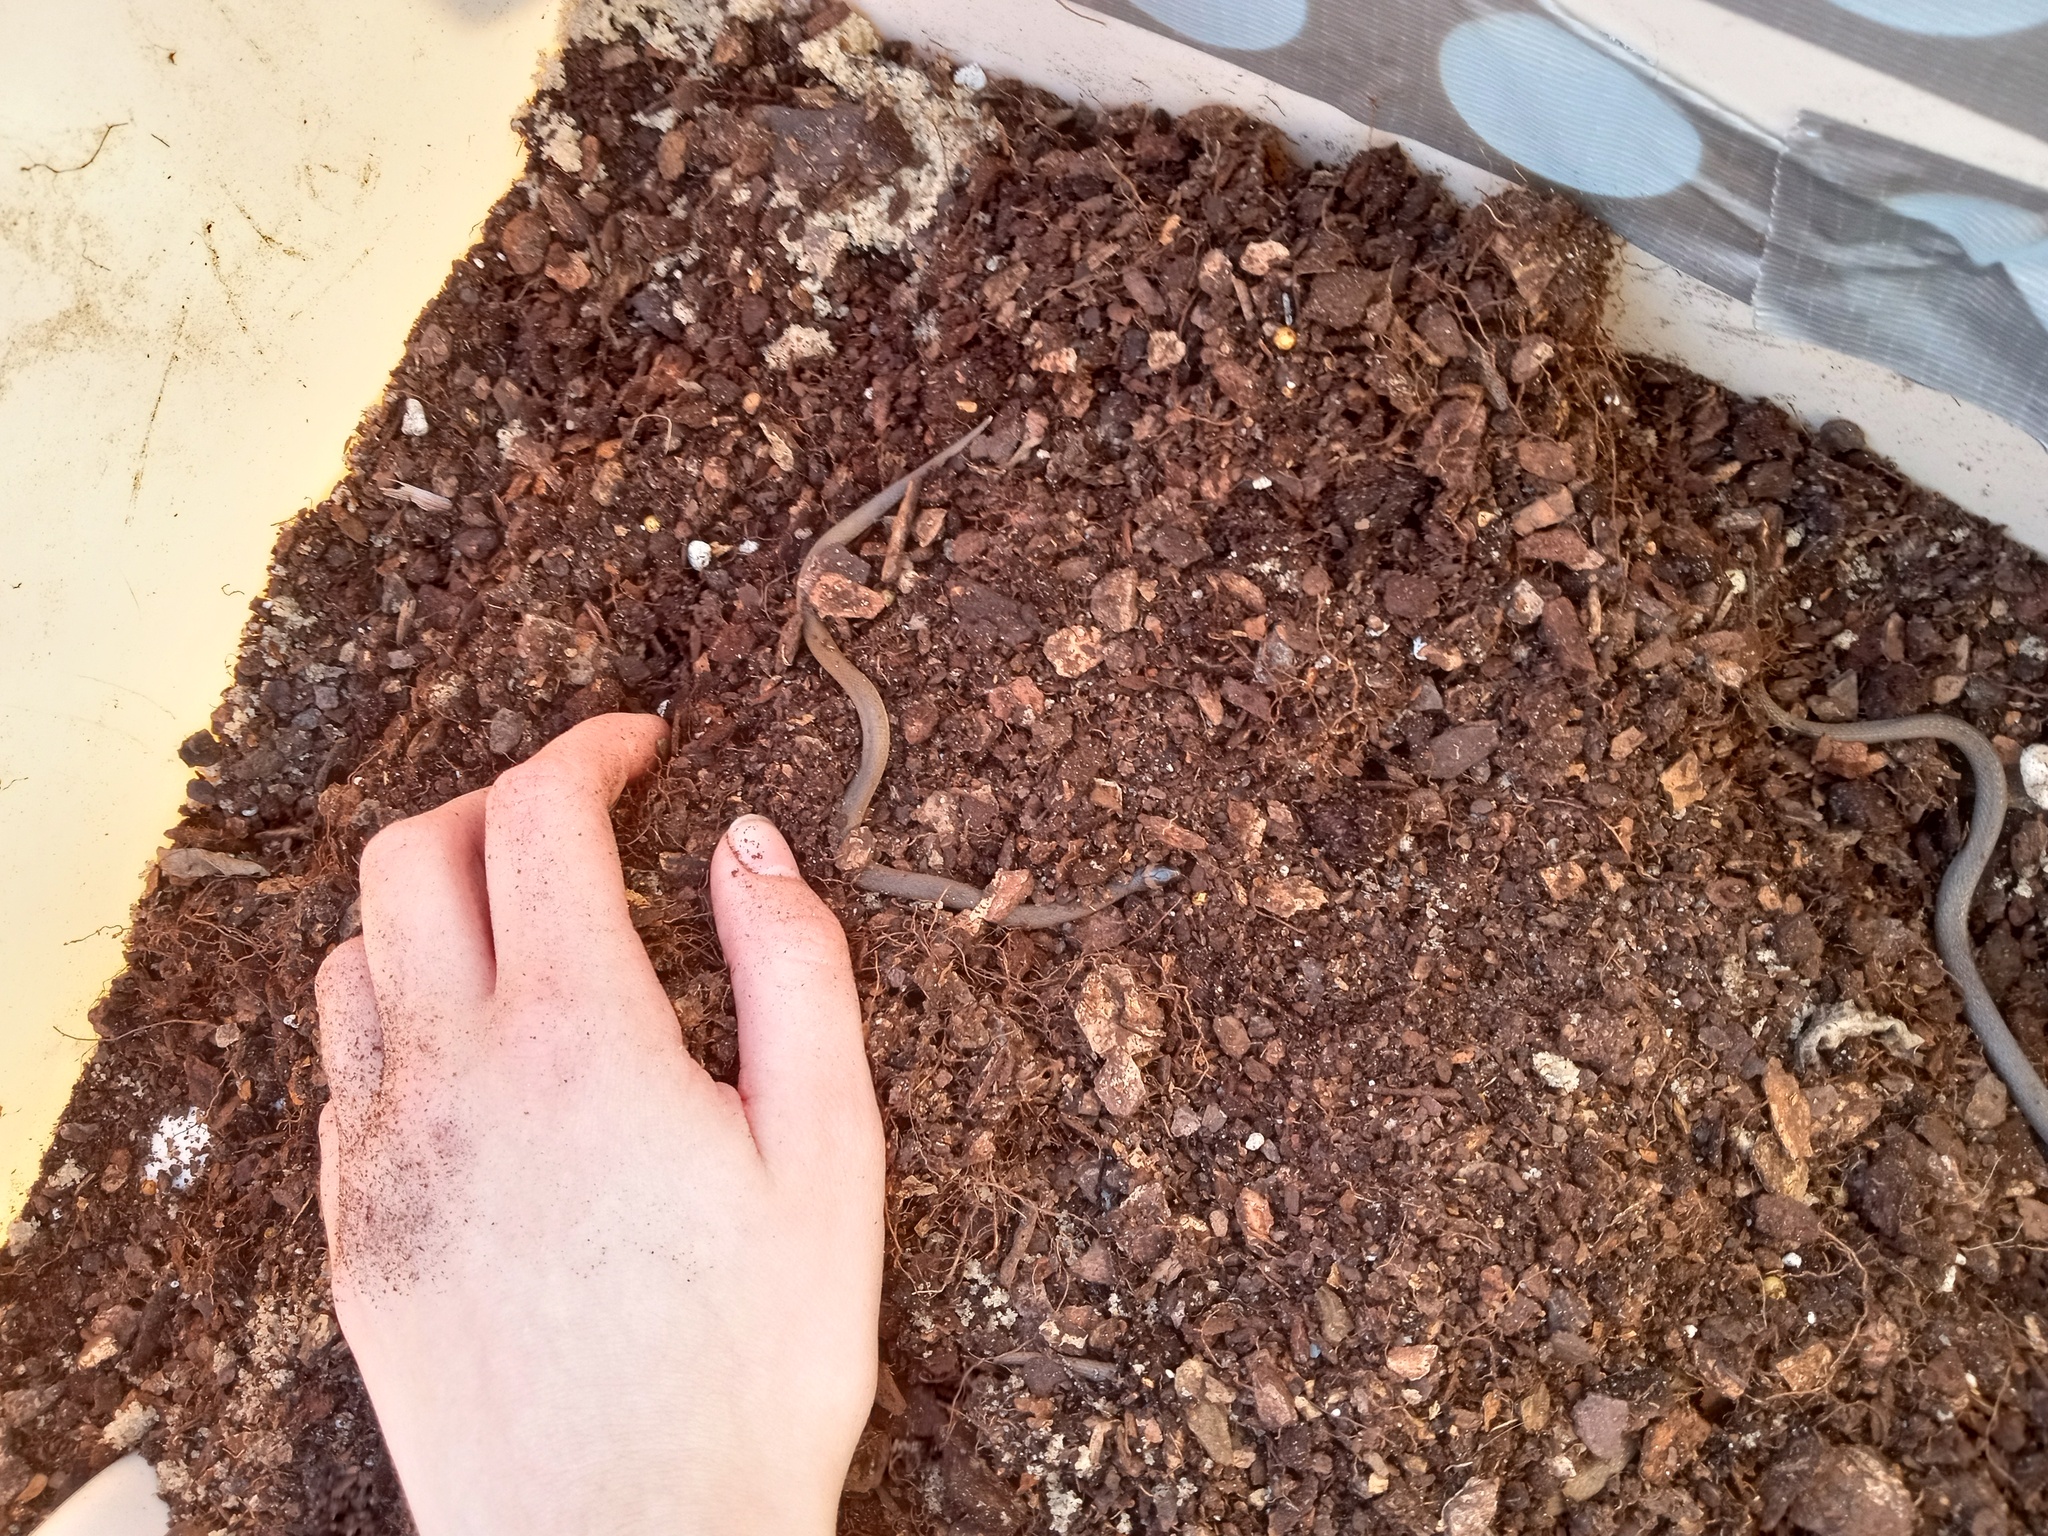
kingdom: Animalia
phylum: Chordata
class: Squamata
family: Colubridae
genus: Haldea
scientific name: Haldea striatula
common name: Rough earth snake
